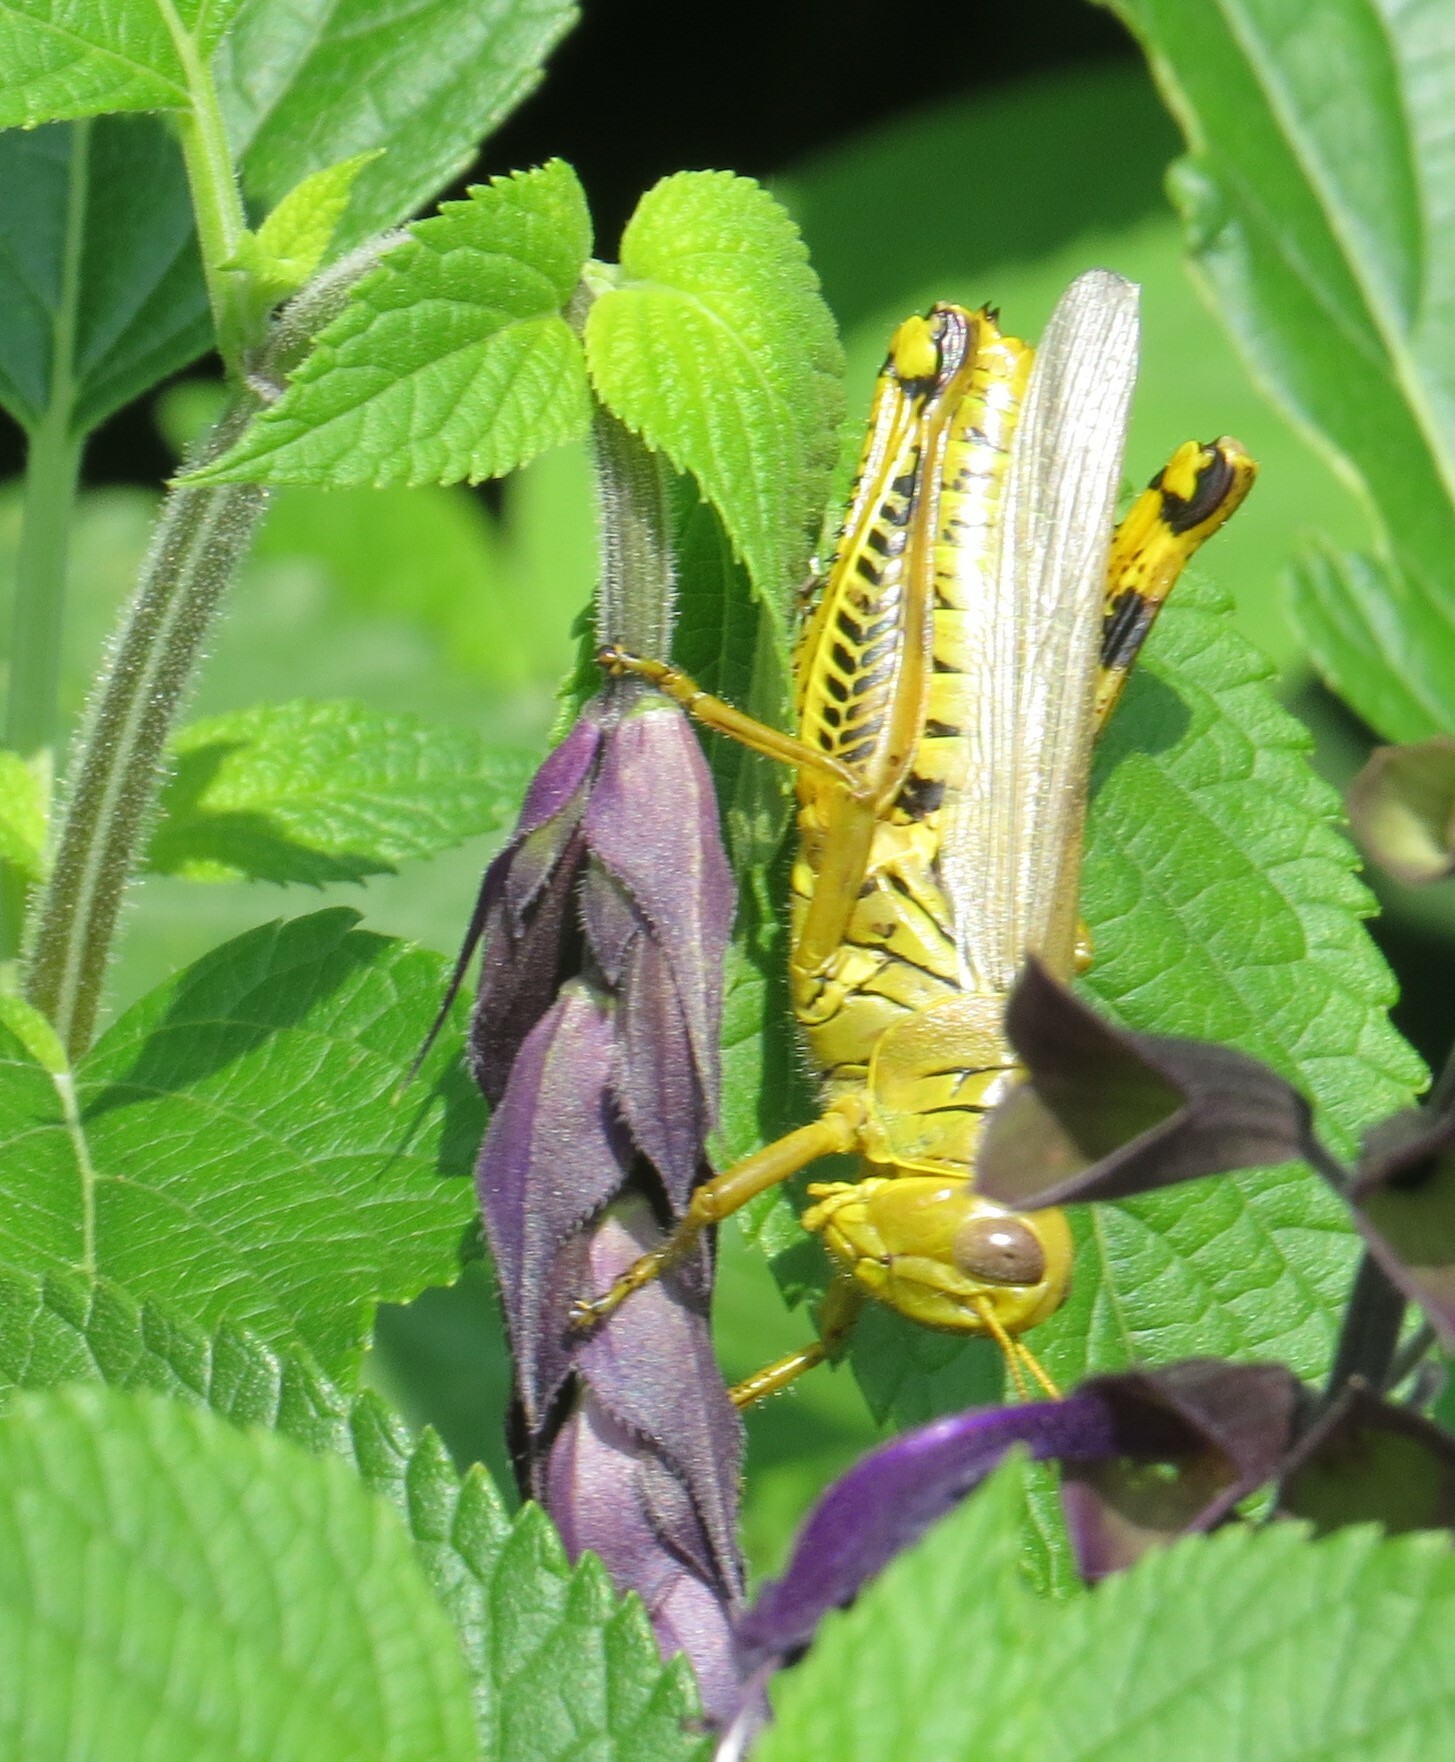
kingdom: Animalia
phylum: Arthropoda
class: Insecta
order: Orthoptera
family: Acrididae
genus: Melanoplus
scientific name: Melanoplus differentialis
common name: Differential grasshopper
